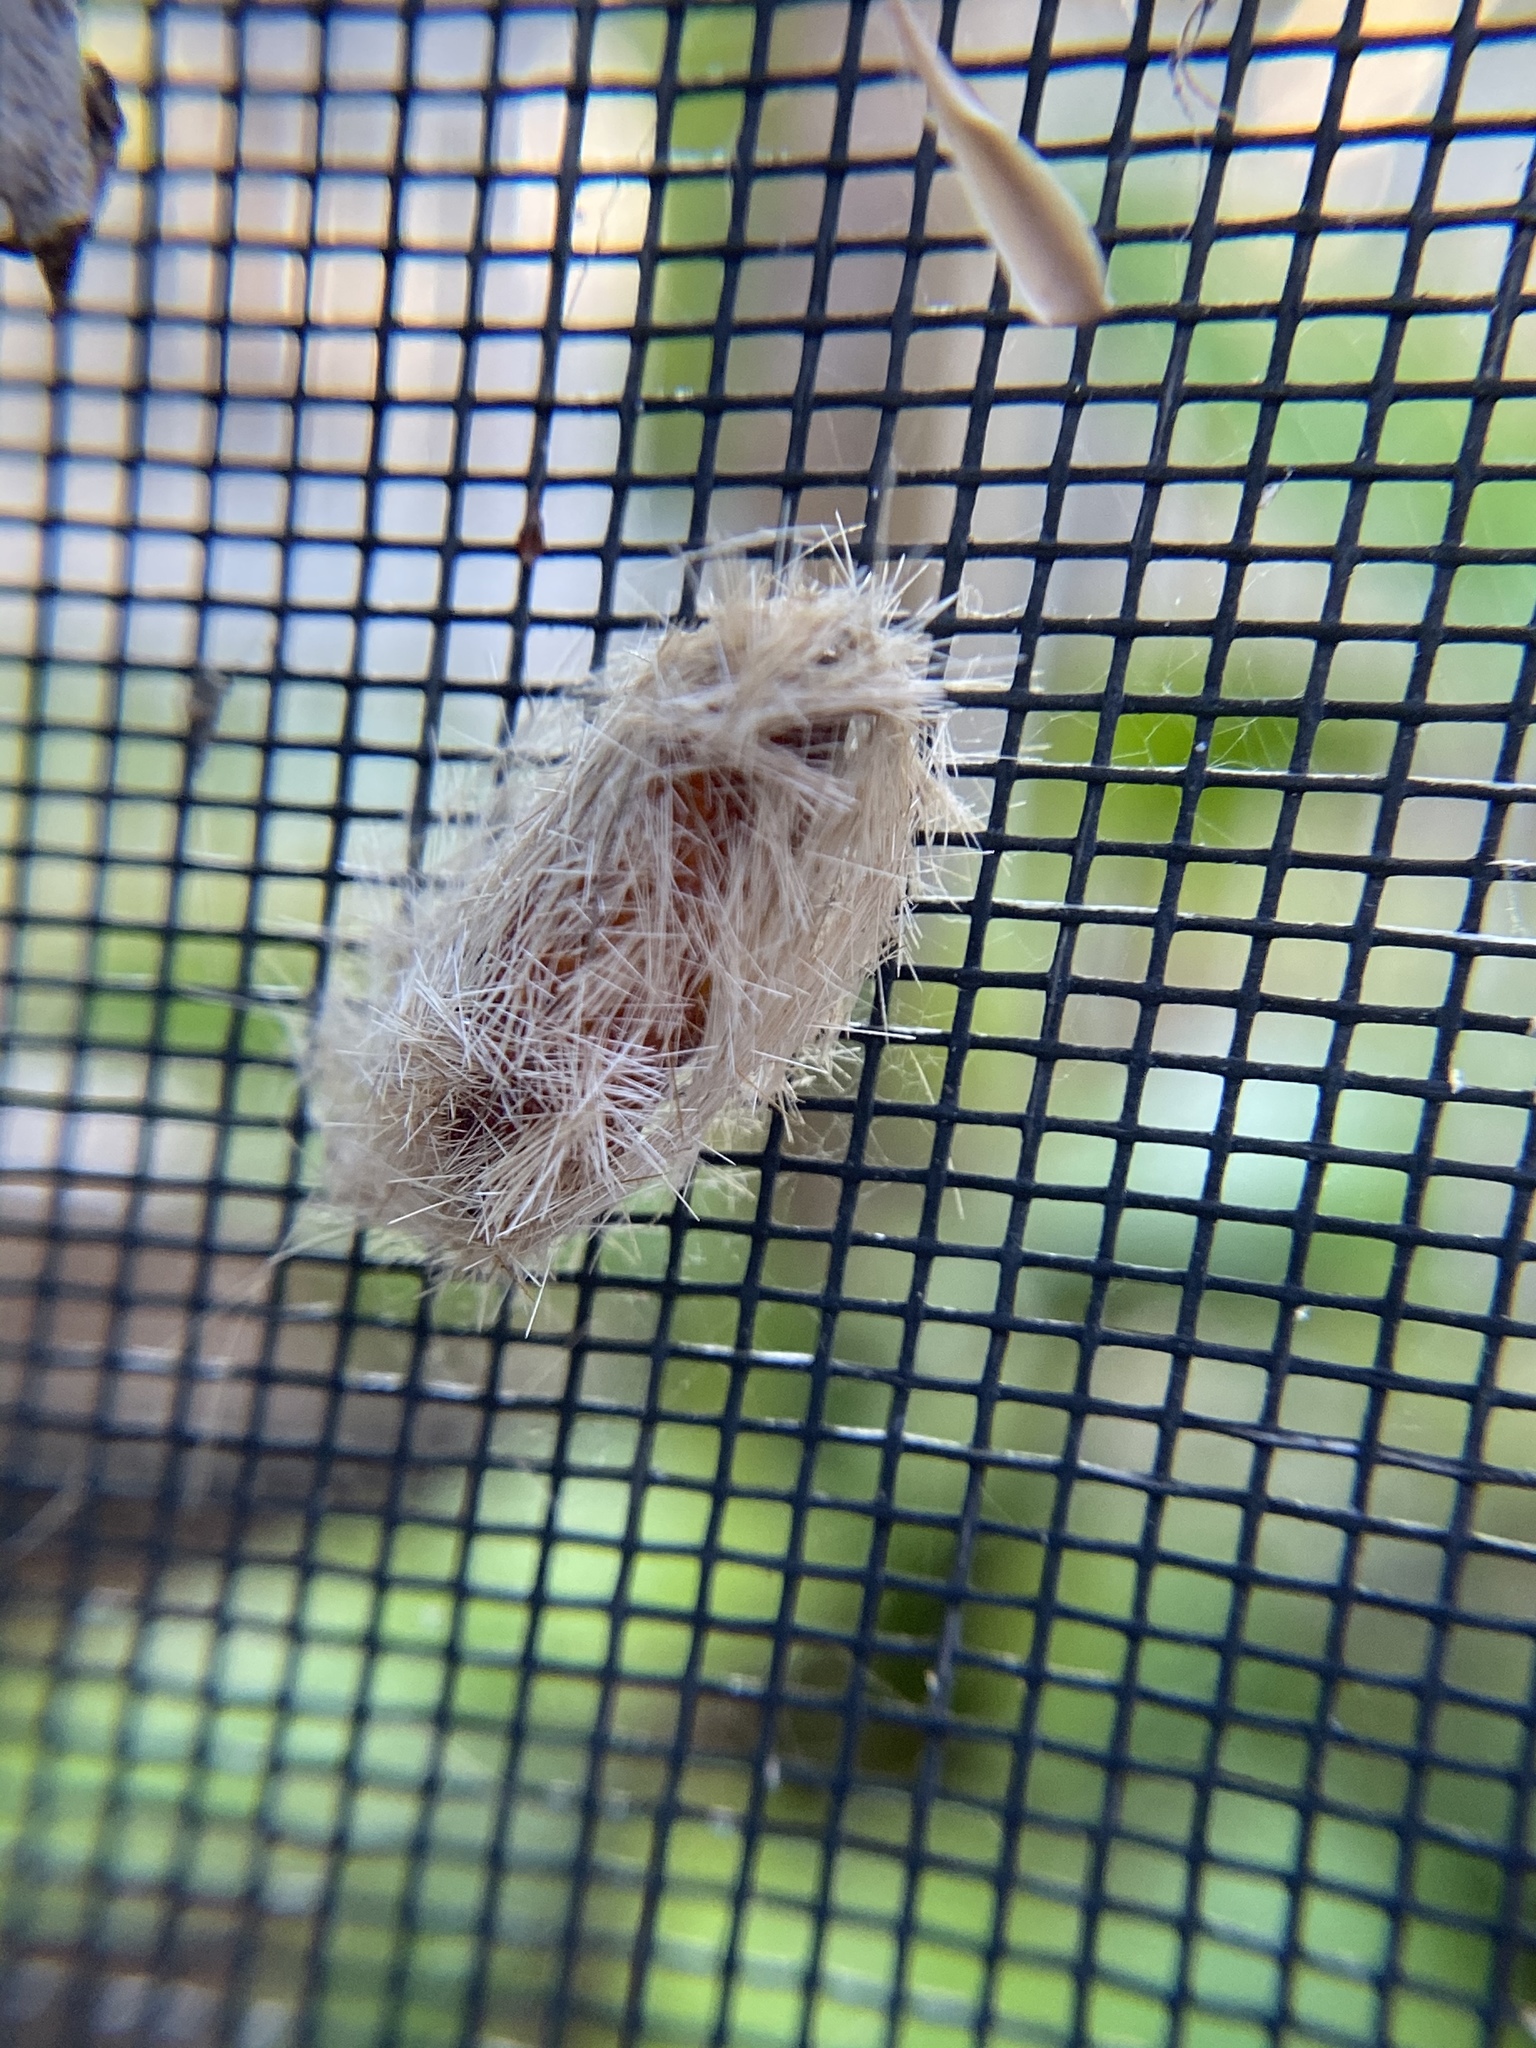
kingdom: Animalia
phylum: Arthropoda
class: Insecta
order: Lepidoptera
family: Erebidae
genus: Lymire
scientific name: Lymire edwardsii
